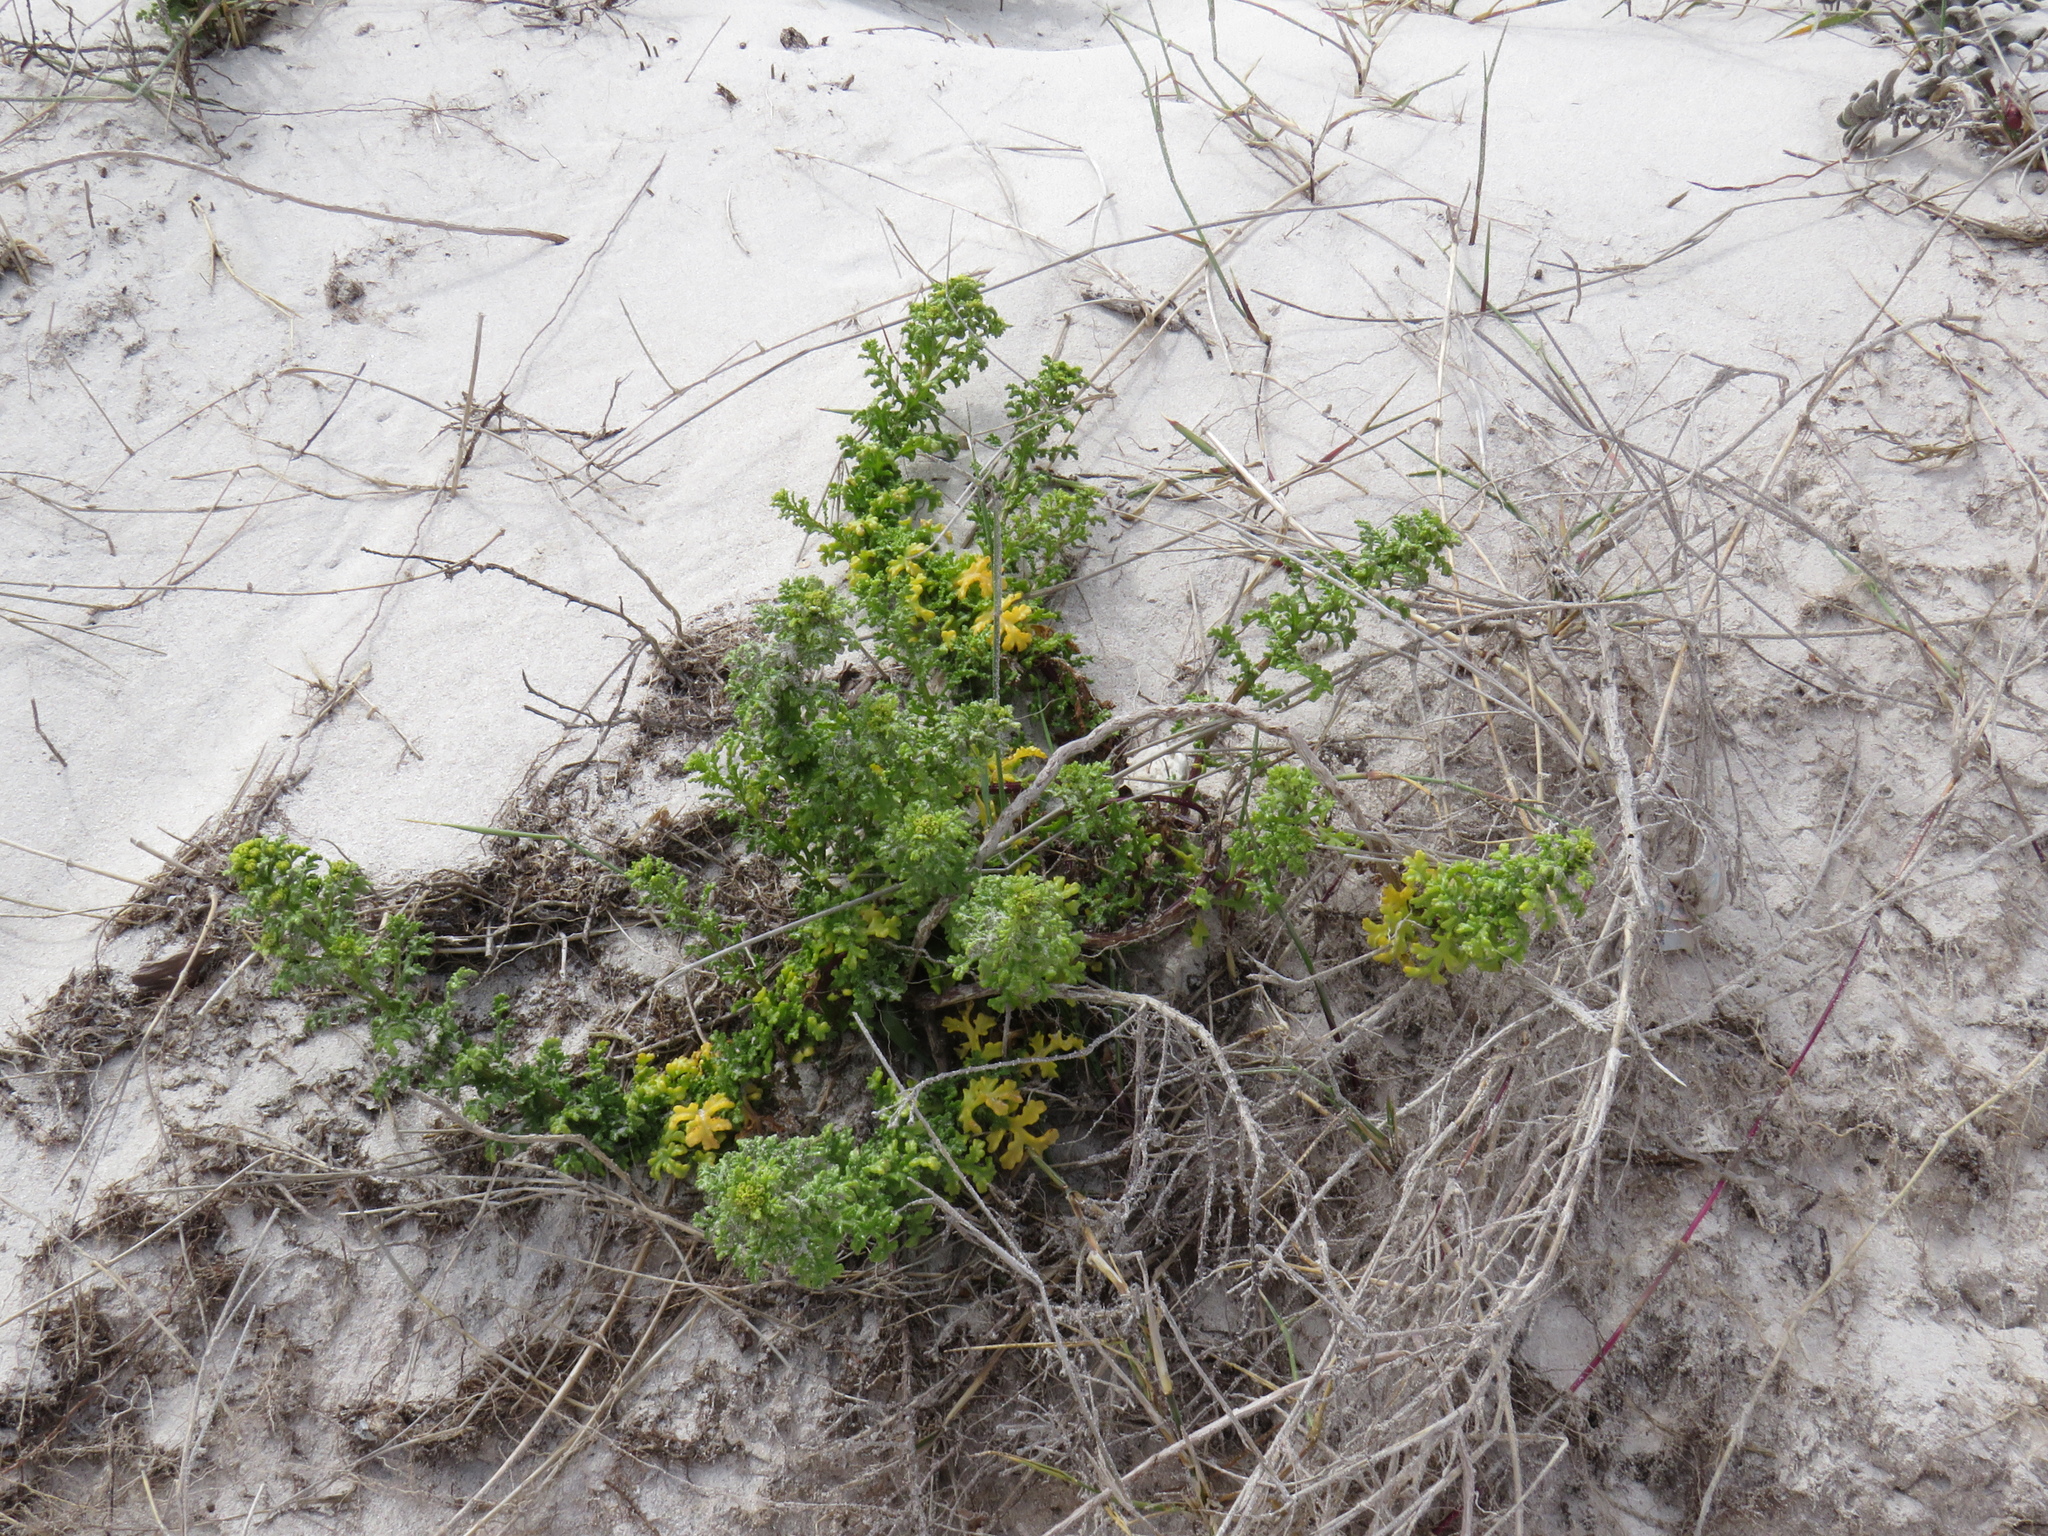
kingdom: Plantae
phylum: Tracheophyta
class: Magnoliopsida
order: Asterales
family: Asteraceae
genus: Oncosiphon
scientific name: Oncosiphon sabulosus
